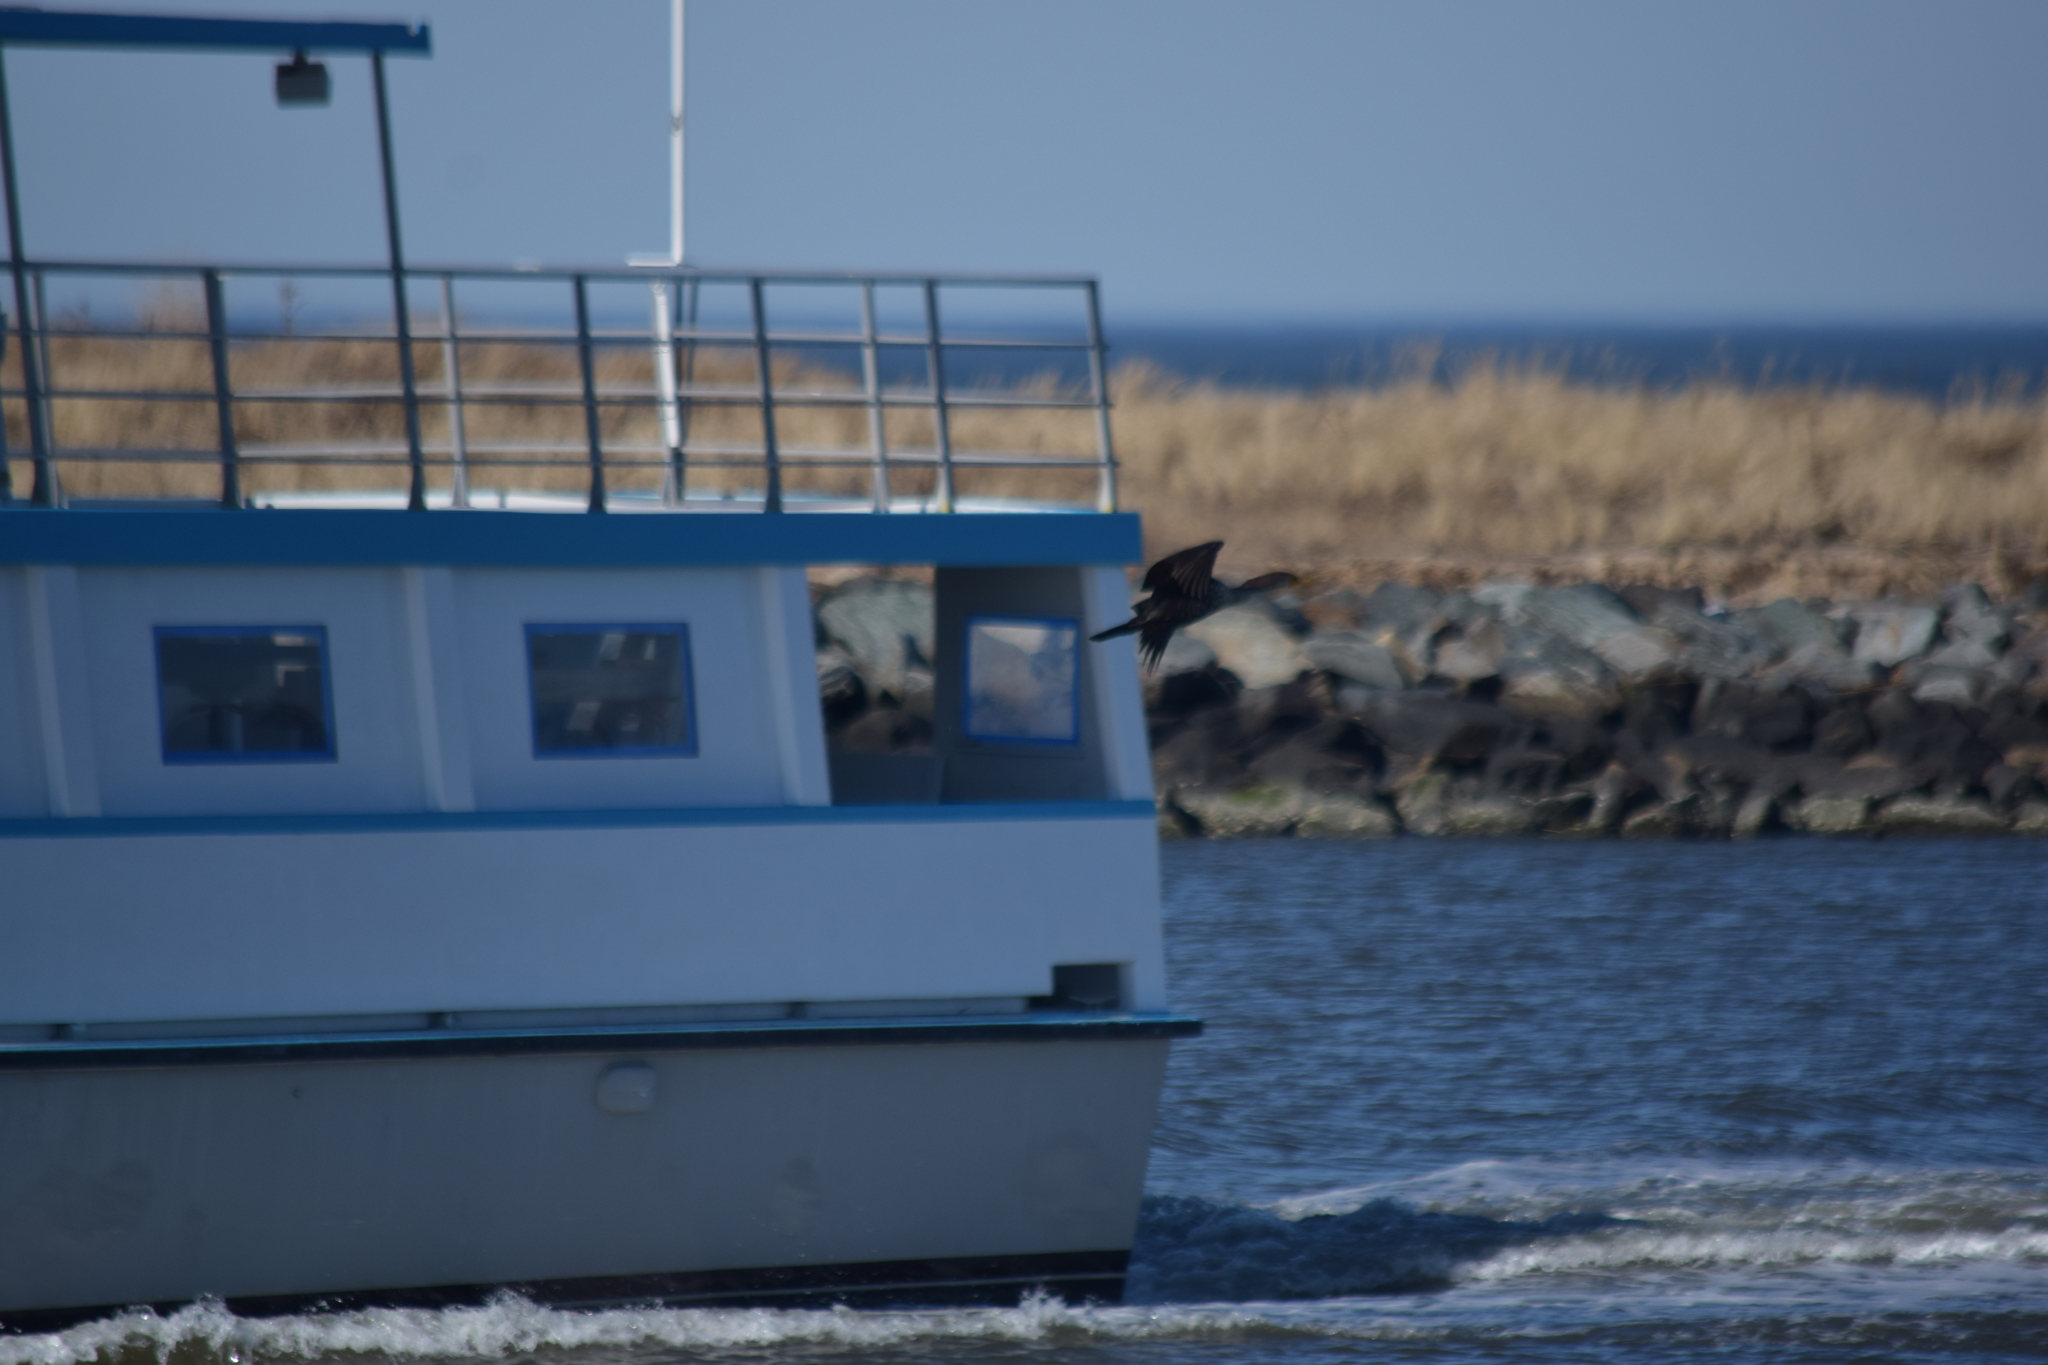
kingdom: Animalia
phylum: Chordata
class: Aves
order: Suliformes
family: Phalacrocoracidae
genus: Phalacrocorax
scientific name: Phalacrocorax auritus
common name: Double-crested cormorant
